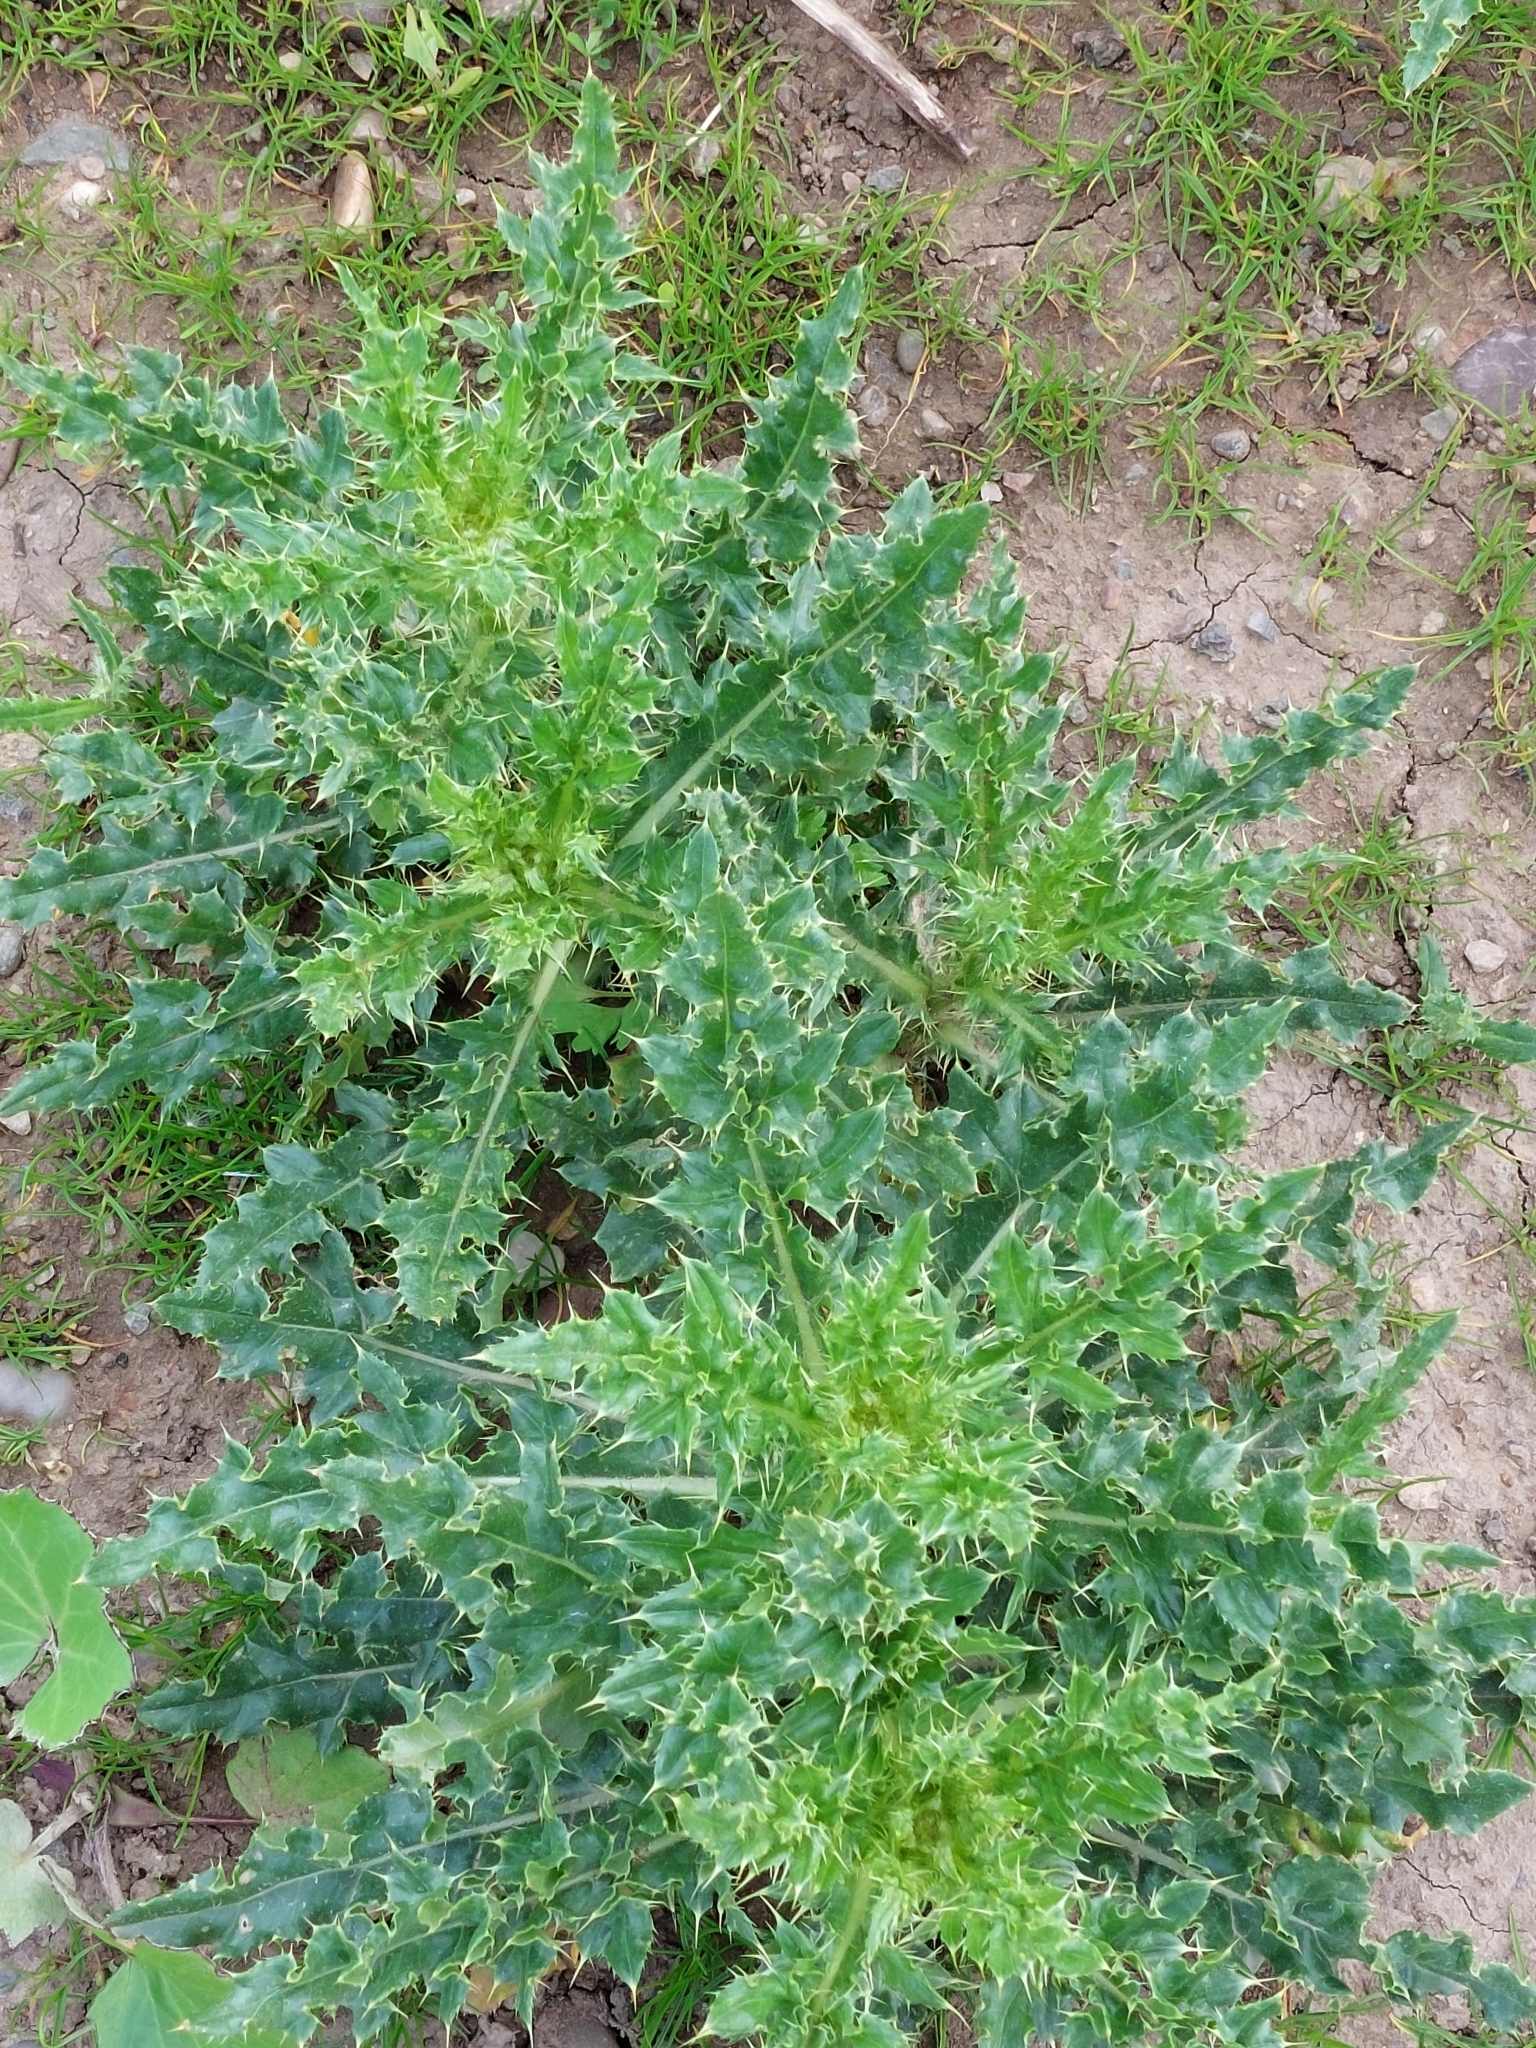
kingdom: Plantae
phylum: Tracheophyta
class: Magnoliopsida
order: Asterales
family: Asteraceae
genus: Cirsium
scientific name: Cirsium arvense
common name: Creeping thistle
